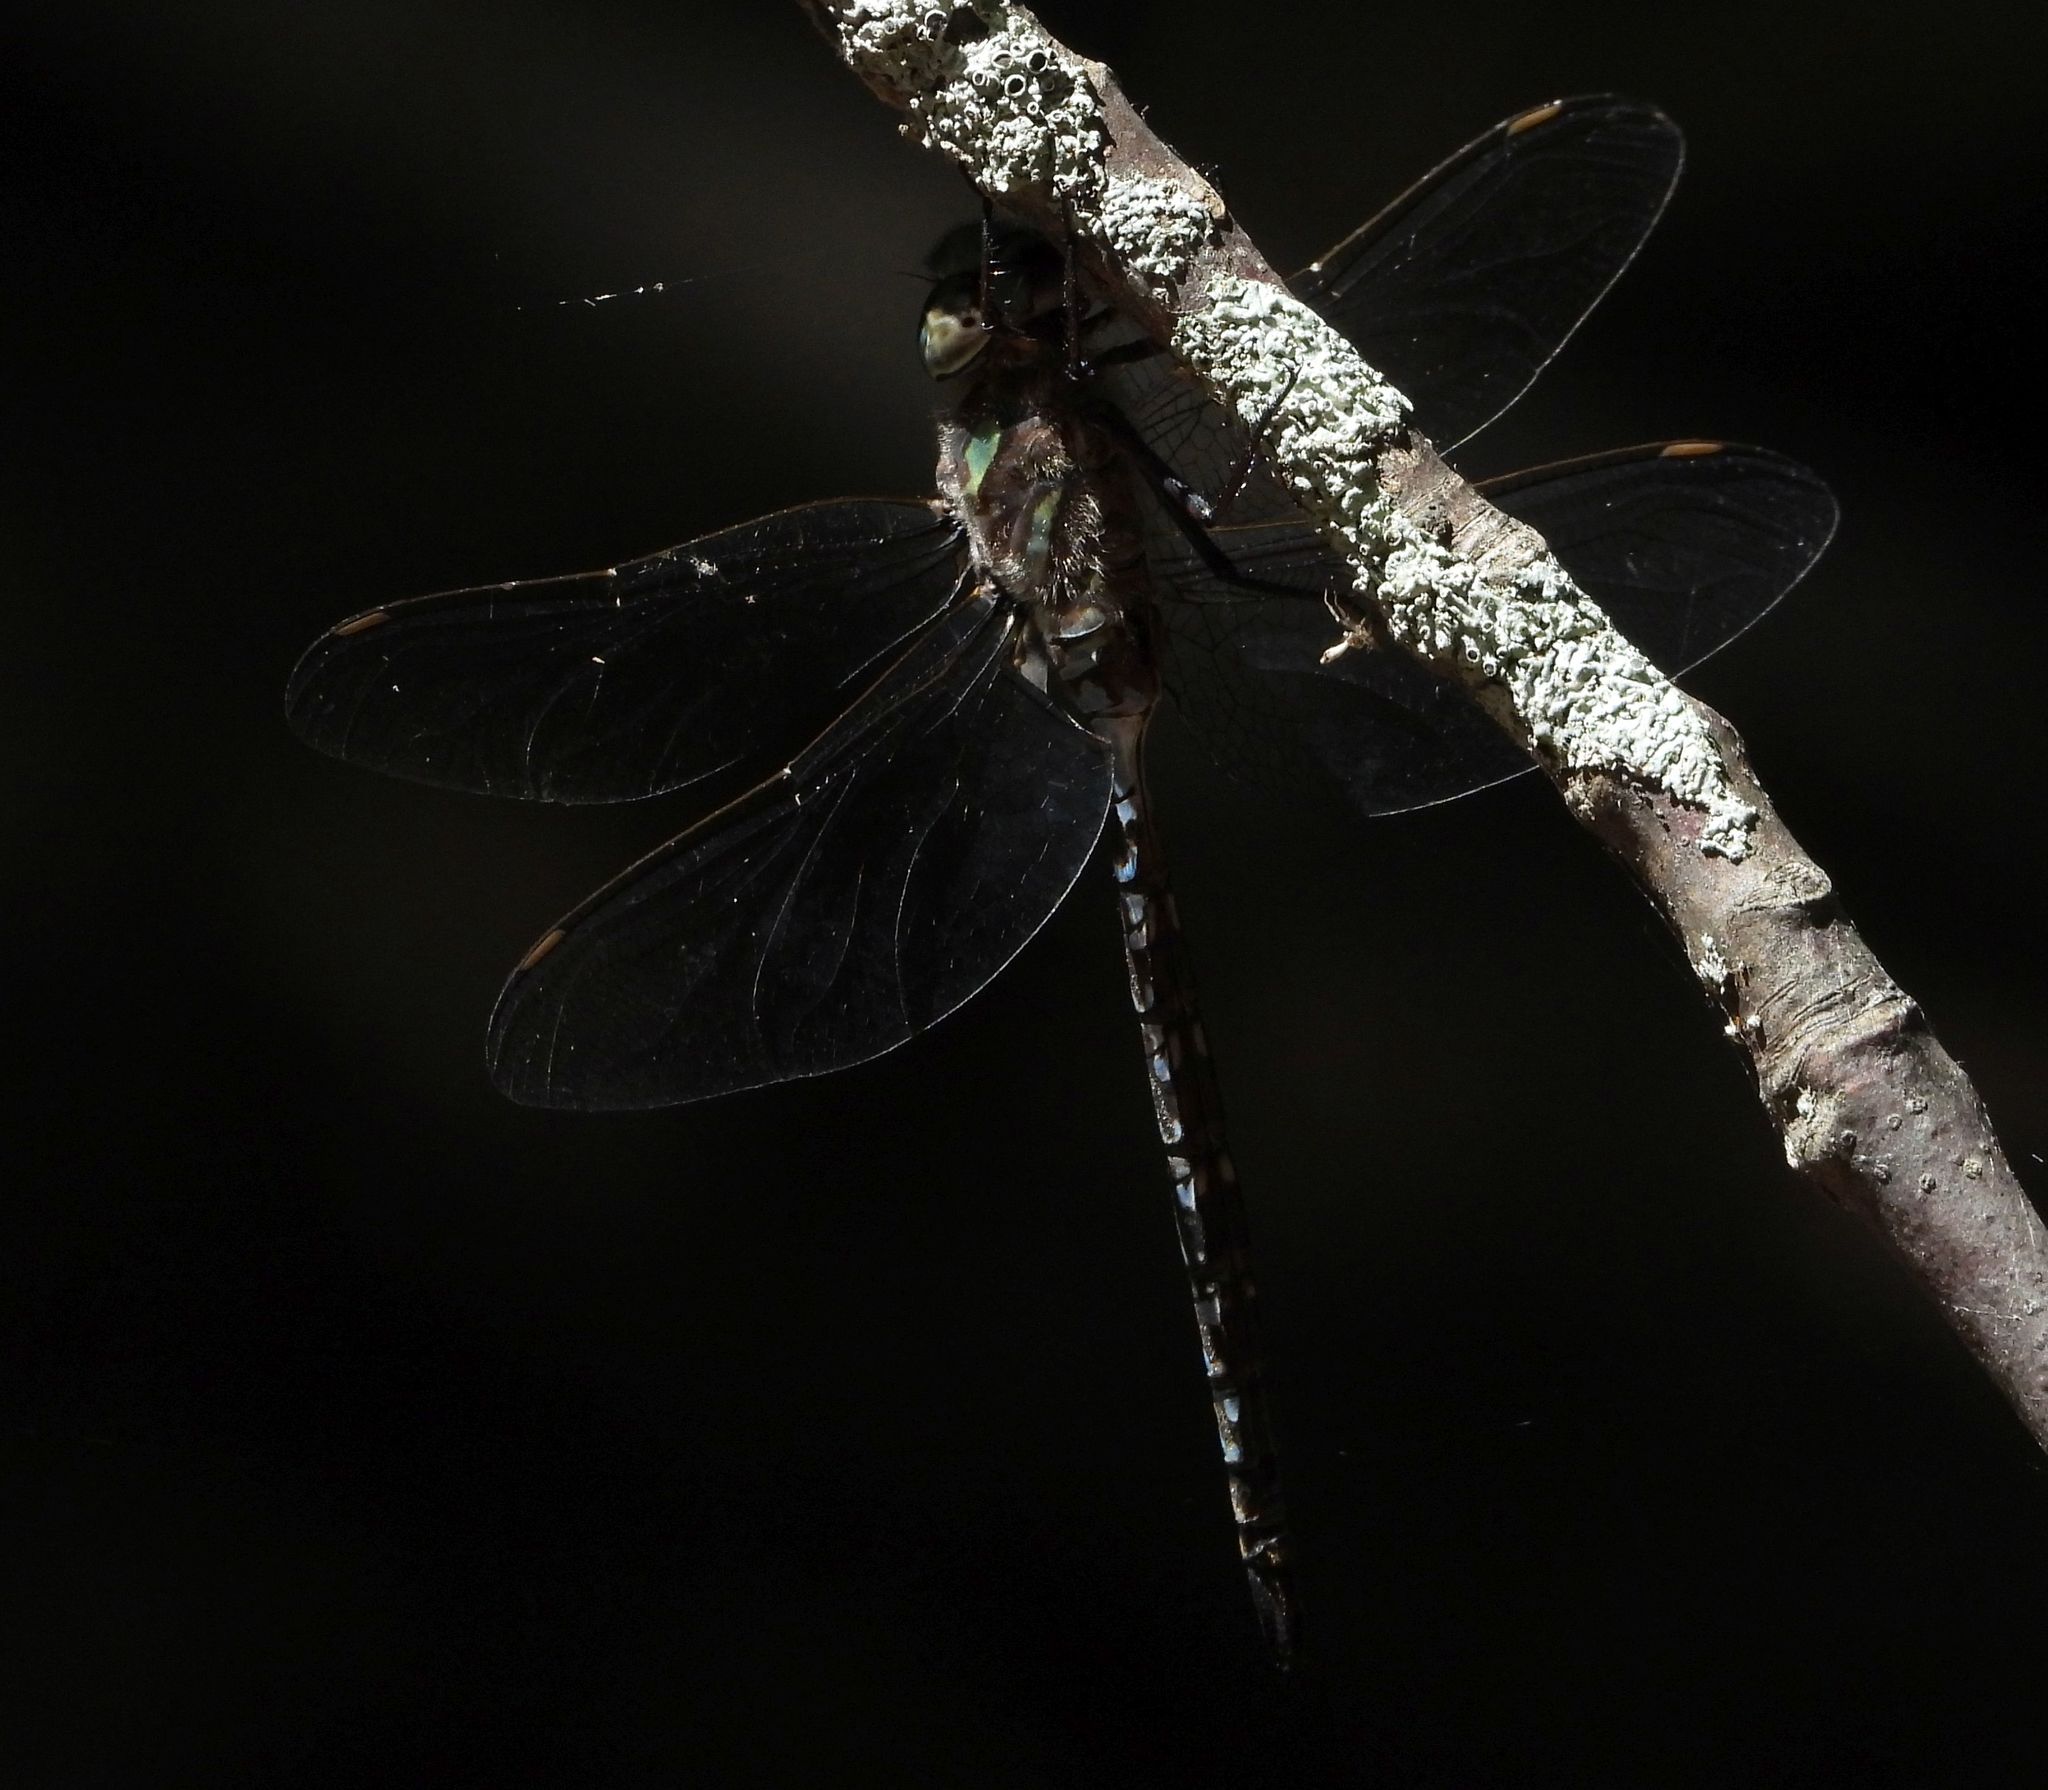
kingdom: Animalia
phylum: Arthropoda
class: Insecta
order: Odonata
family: Aeshnidae
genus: Aeshna
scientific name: Aeshna canadensis
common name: Canada darner
